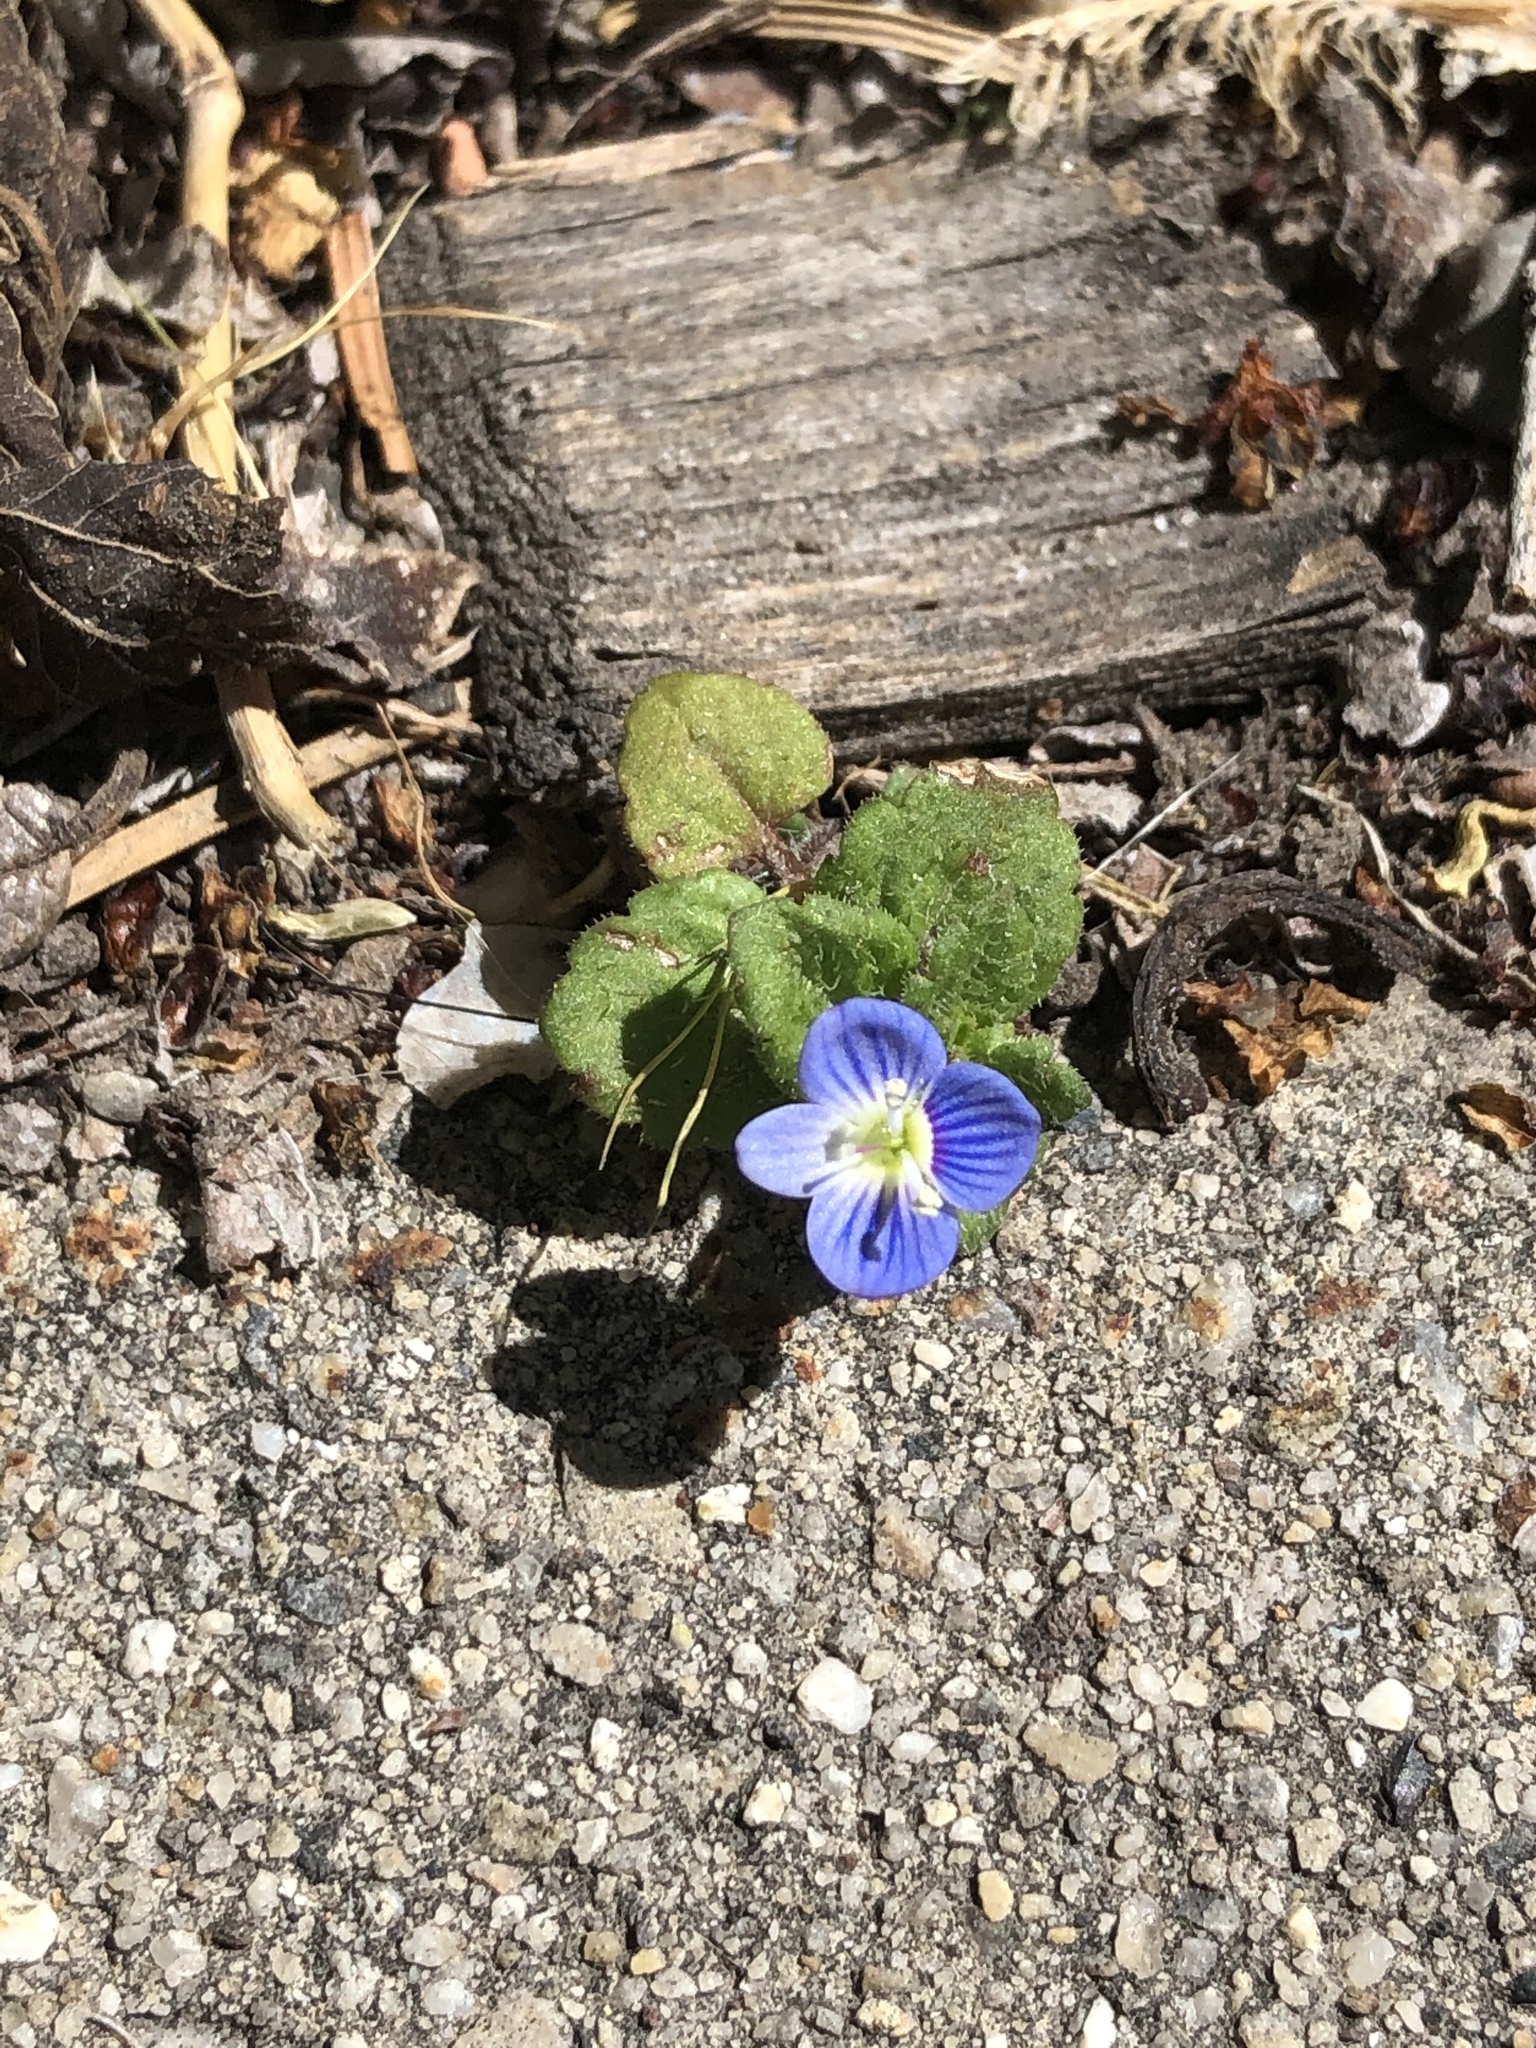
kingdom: Plantae
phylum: Tracheophyta
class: Magnoliopsida
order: Lamiales
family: Plantaginaceae
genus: Veronica
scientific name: Veronica persica
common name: Common field-speedwell
